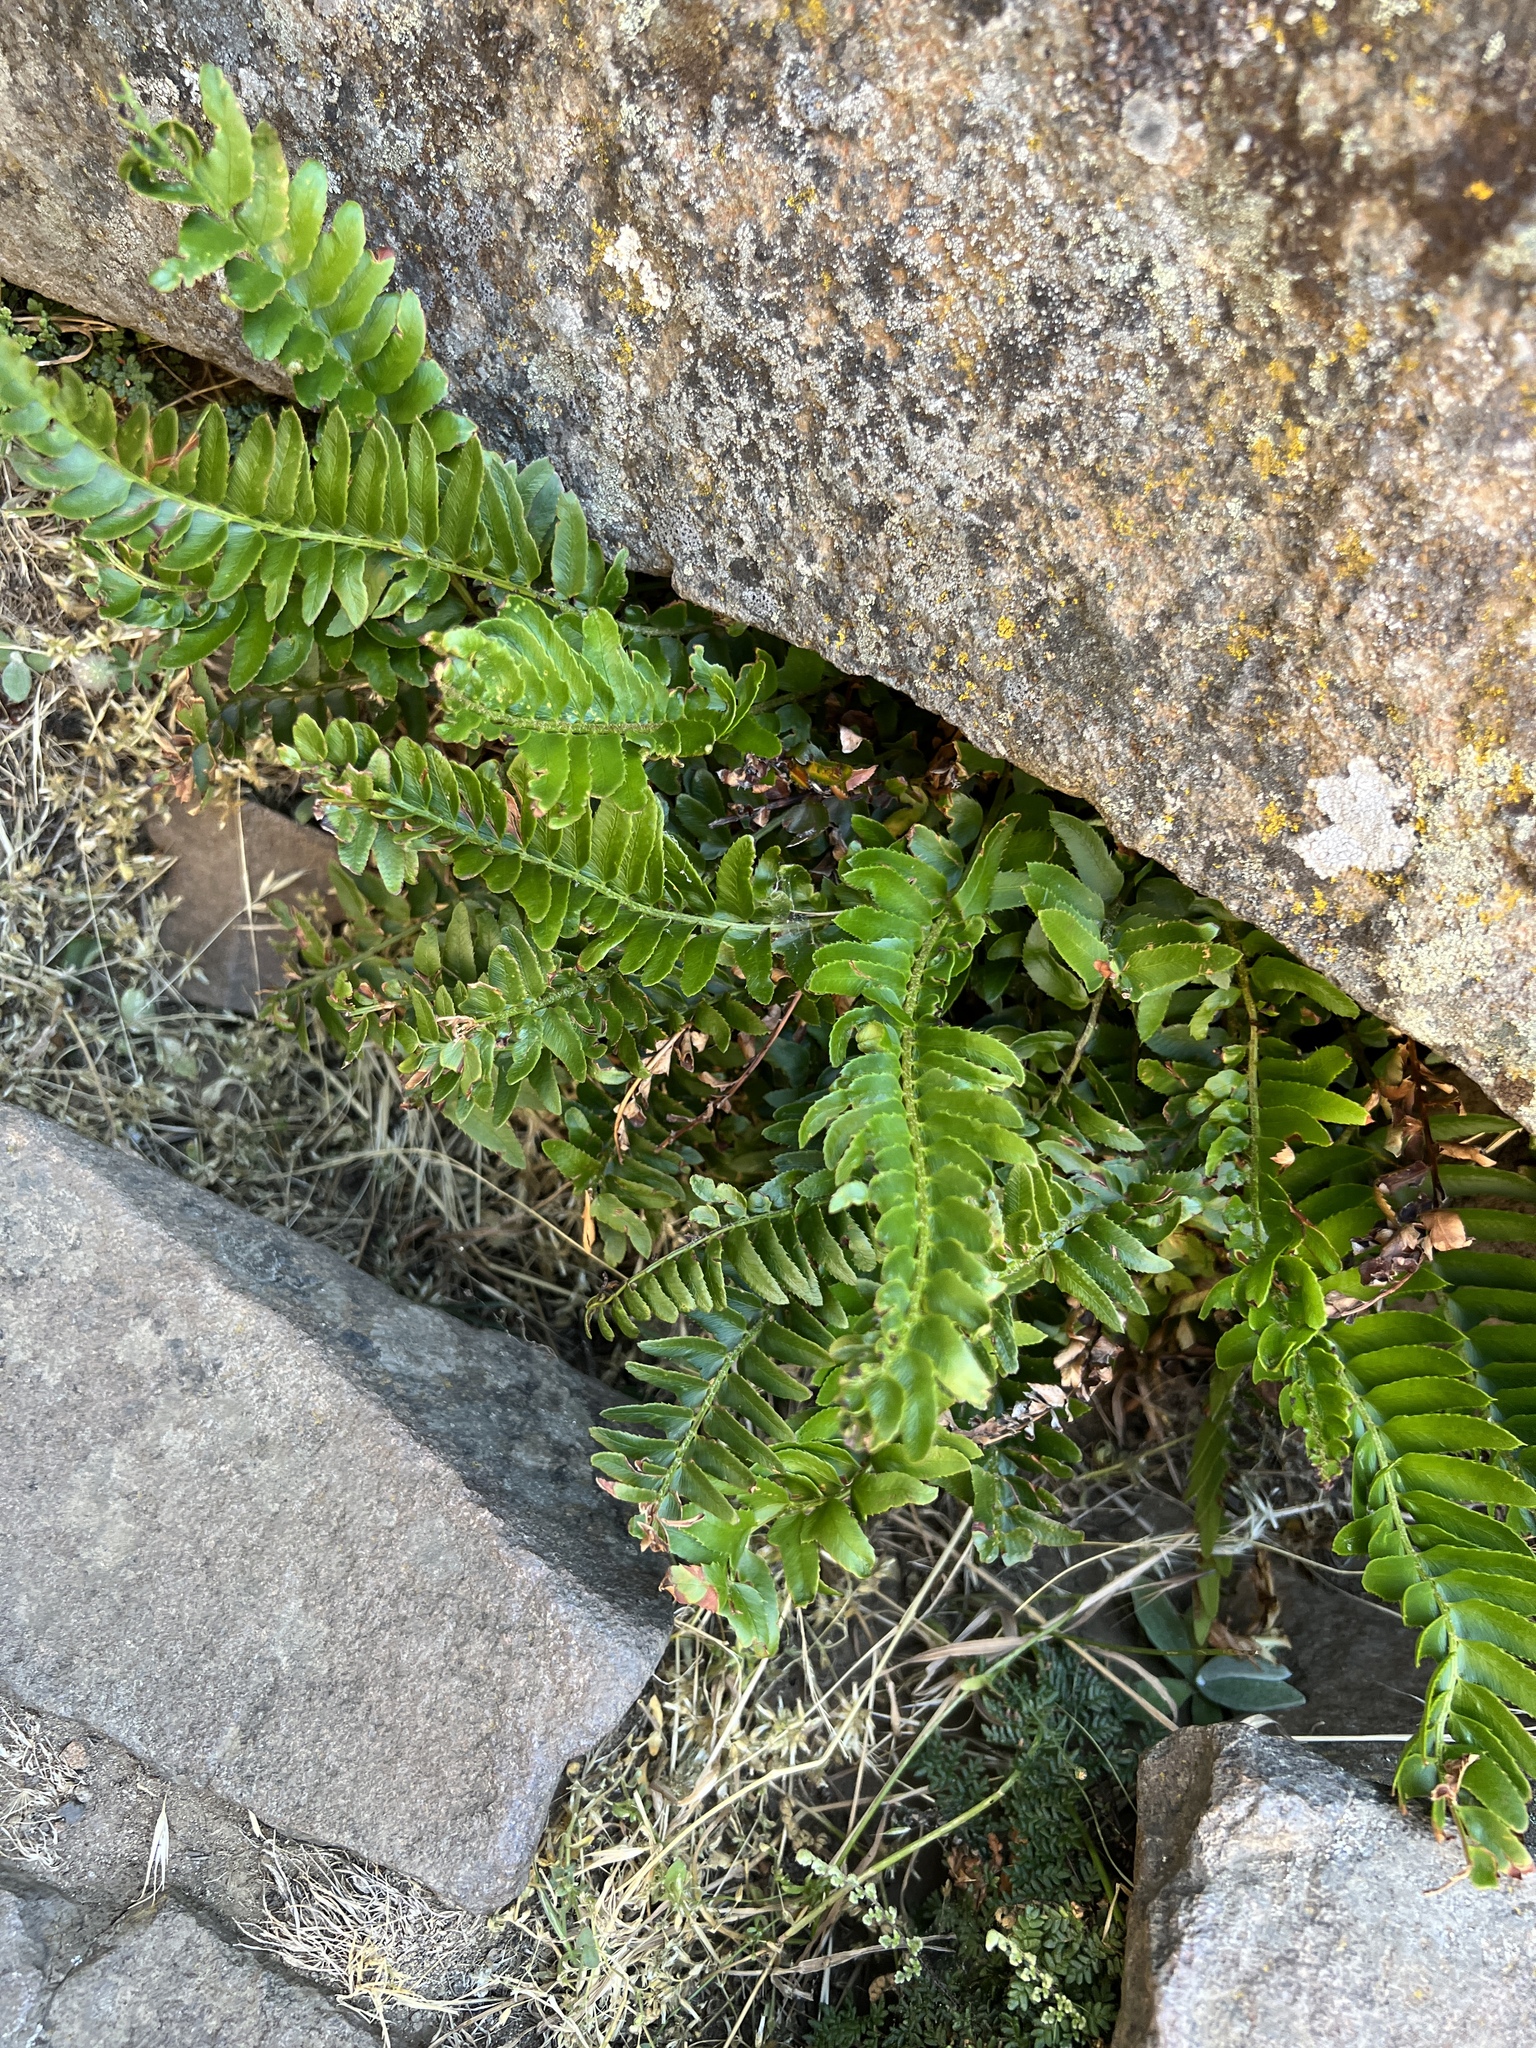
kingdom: Plantae
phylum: Tracheophyta
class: Polypodiopsida
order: Polypodiales
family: Dryopteridaceae
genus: Polystichum
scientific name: Polystichum imbricans
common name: Dwarf western sword fern
